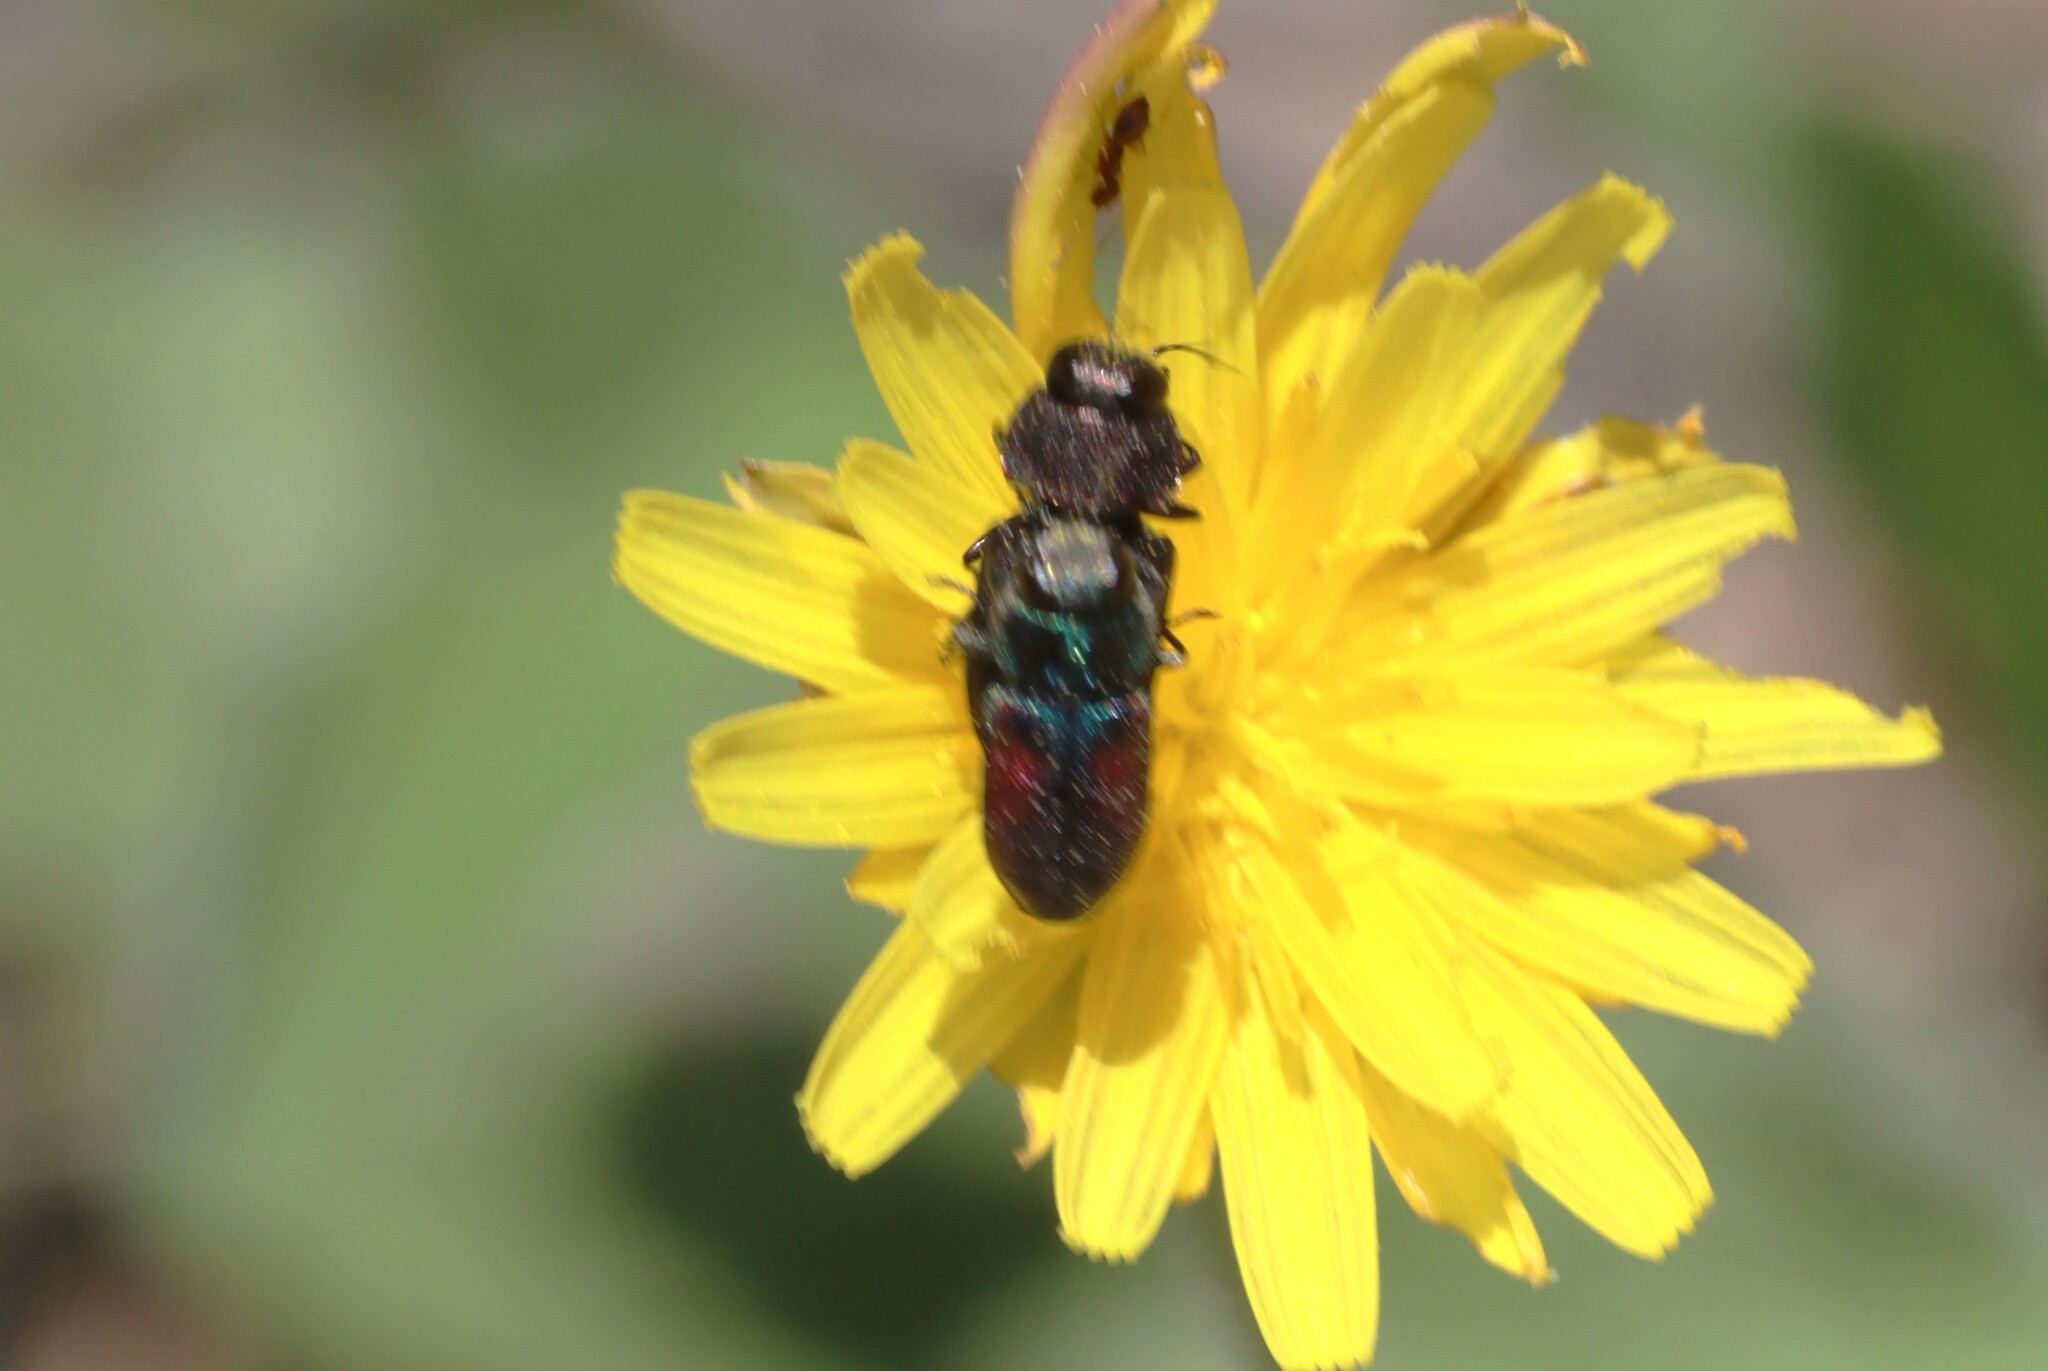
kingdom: Animalia
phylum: Arthropoda
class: Insecta
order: Coleoptera
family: Buprestidae
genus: Anthaxia
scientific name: Anthaxia brevis
